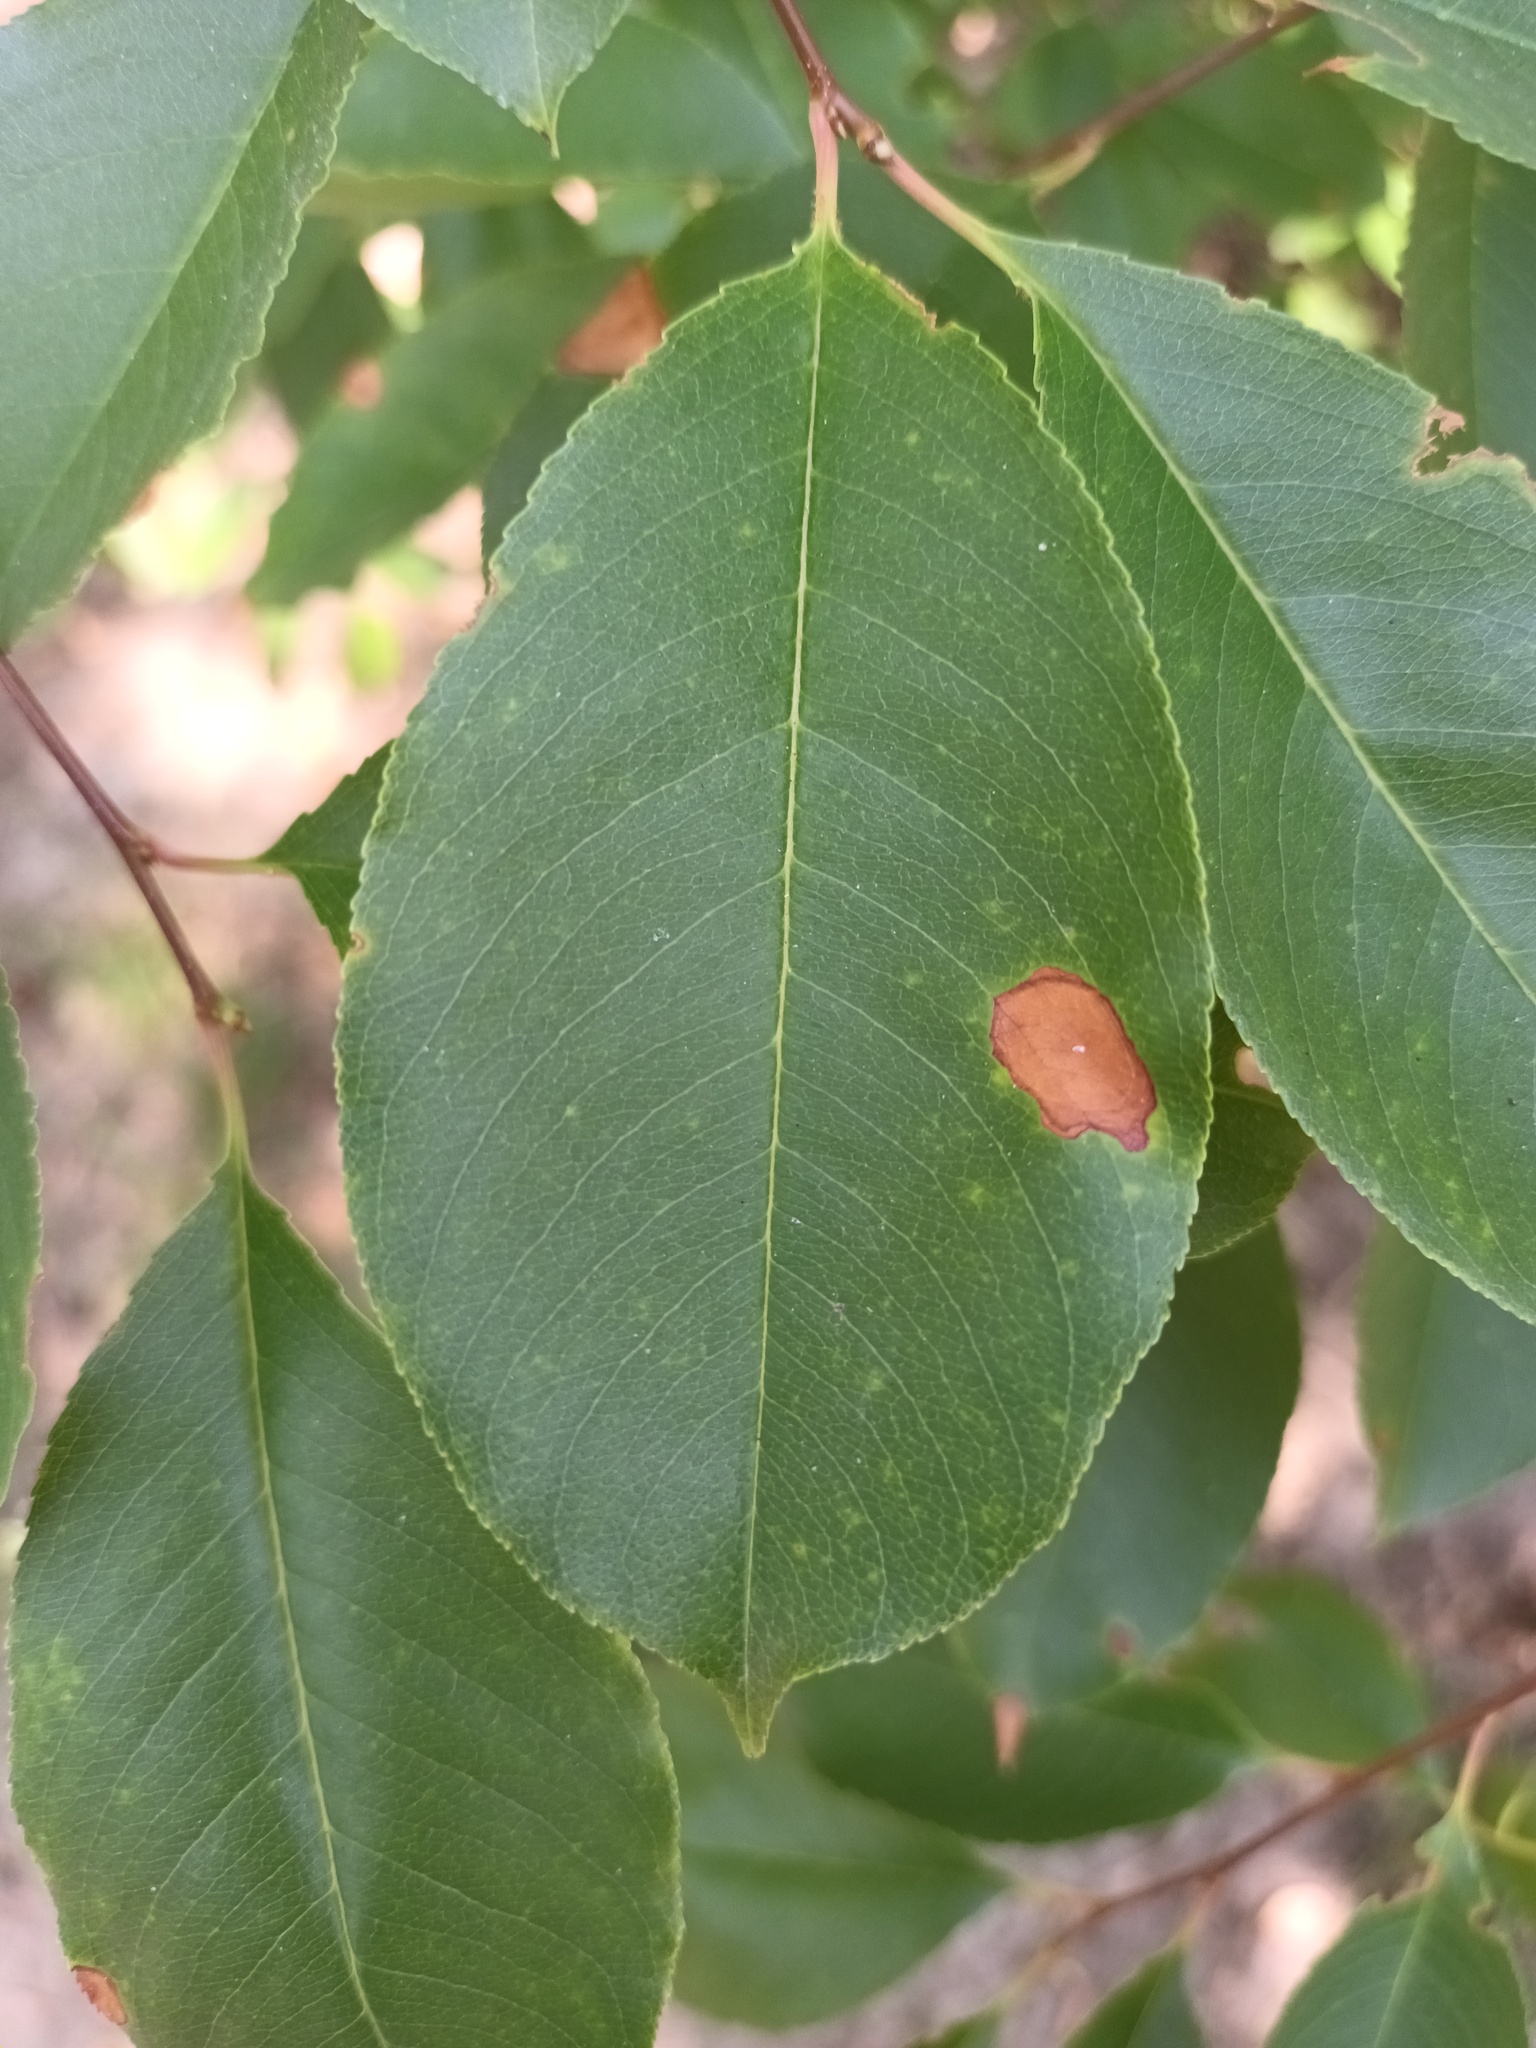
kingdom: Plantae
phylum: Tracheophyta
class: Magnoliopsida
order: Rosales
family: Rosaceae
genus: Prunus
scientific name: Prunus serotina
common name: Black cherry
